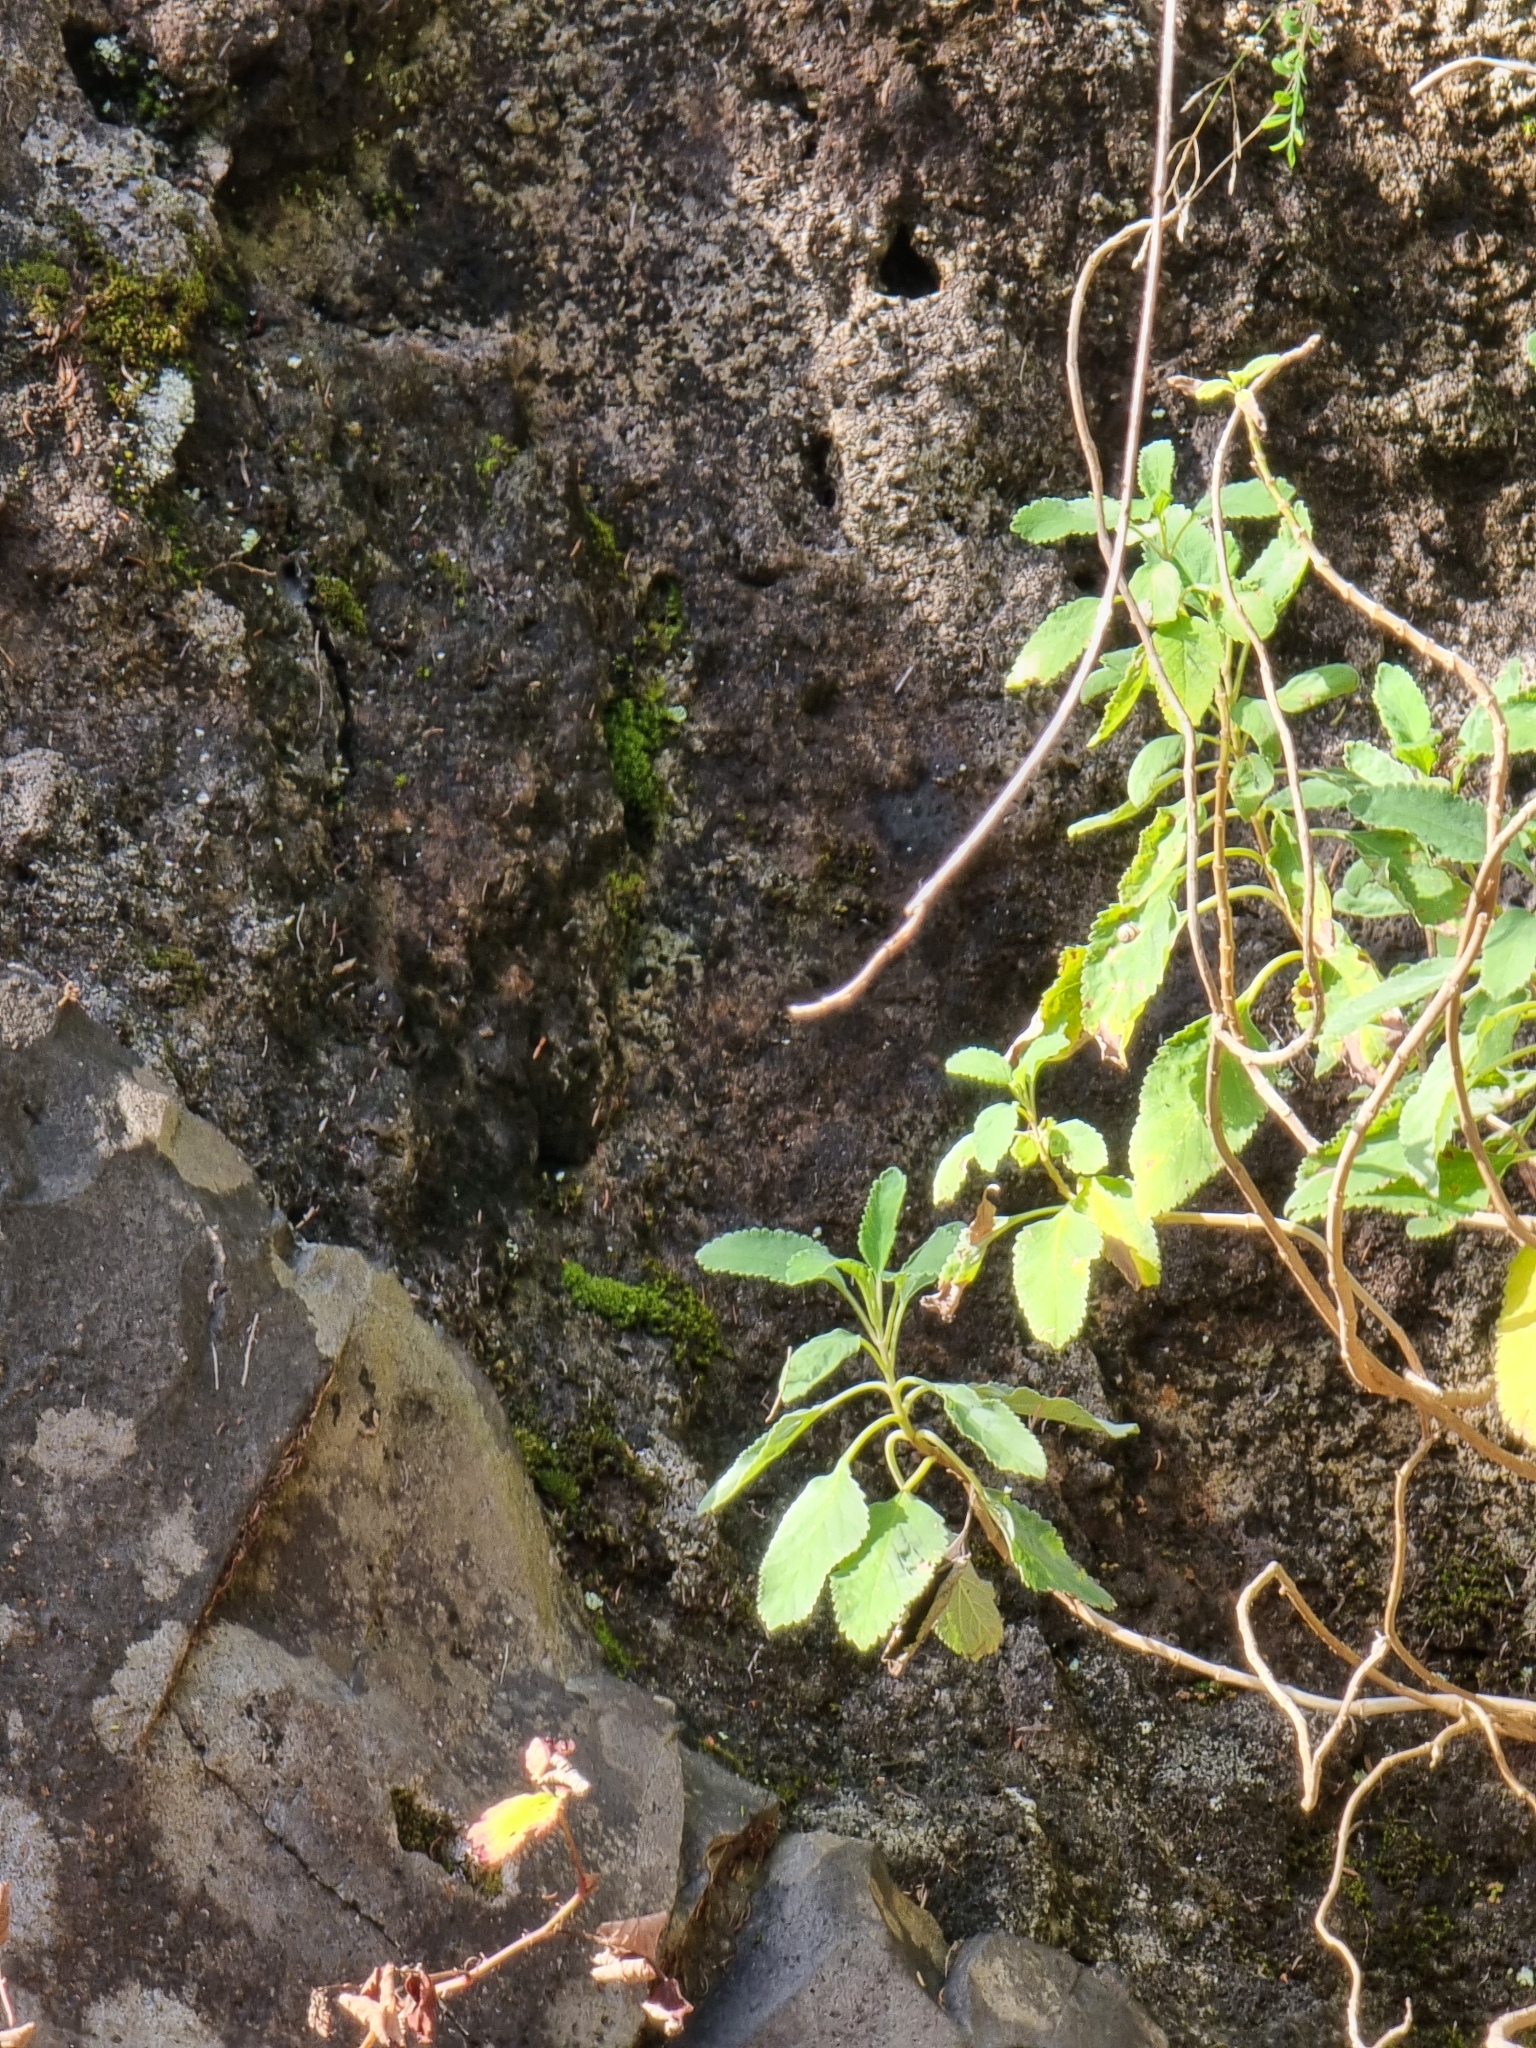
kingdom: Plantae
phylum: Tracheophyta
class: Magnoliopsida
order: Lamiales
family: Lamiaceae
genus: Teucrium
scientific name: Teucrium betonicum
